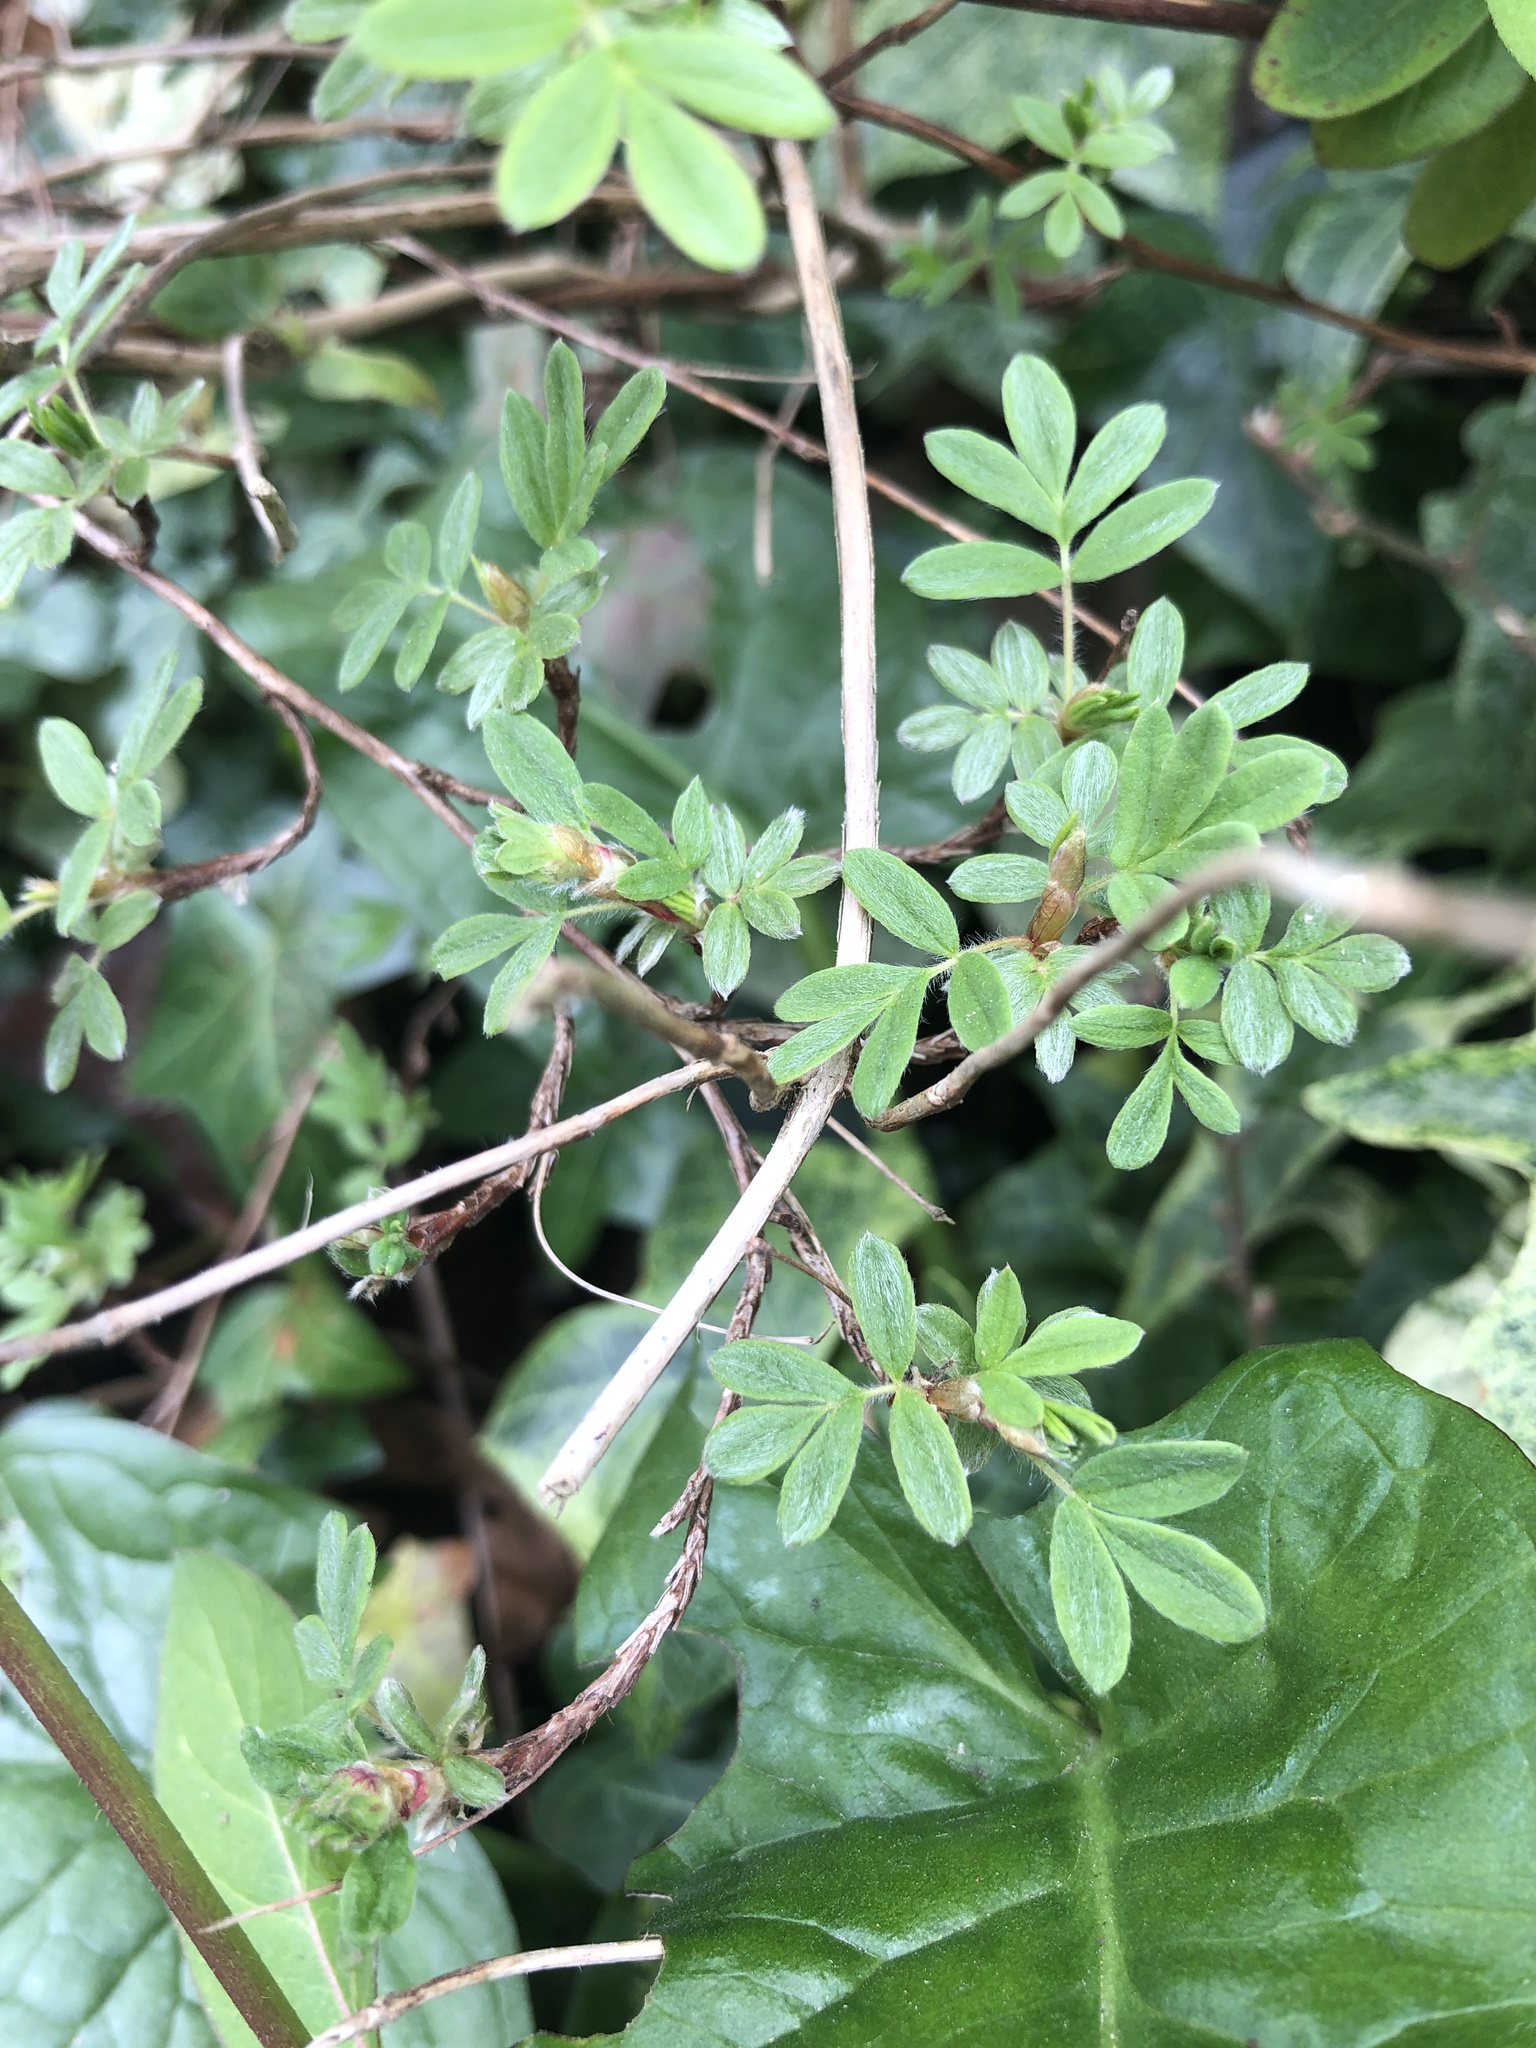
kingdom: Plantae
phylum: Tracheophyta
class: Magnoliopsida
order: Rosales
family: Rosaceae
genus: Dasiphora
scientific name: Dasiphora fruticosa
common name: Shrubby cinquefoil
